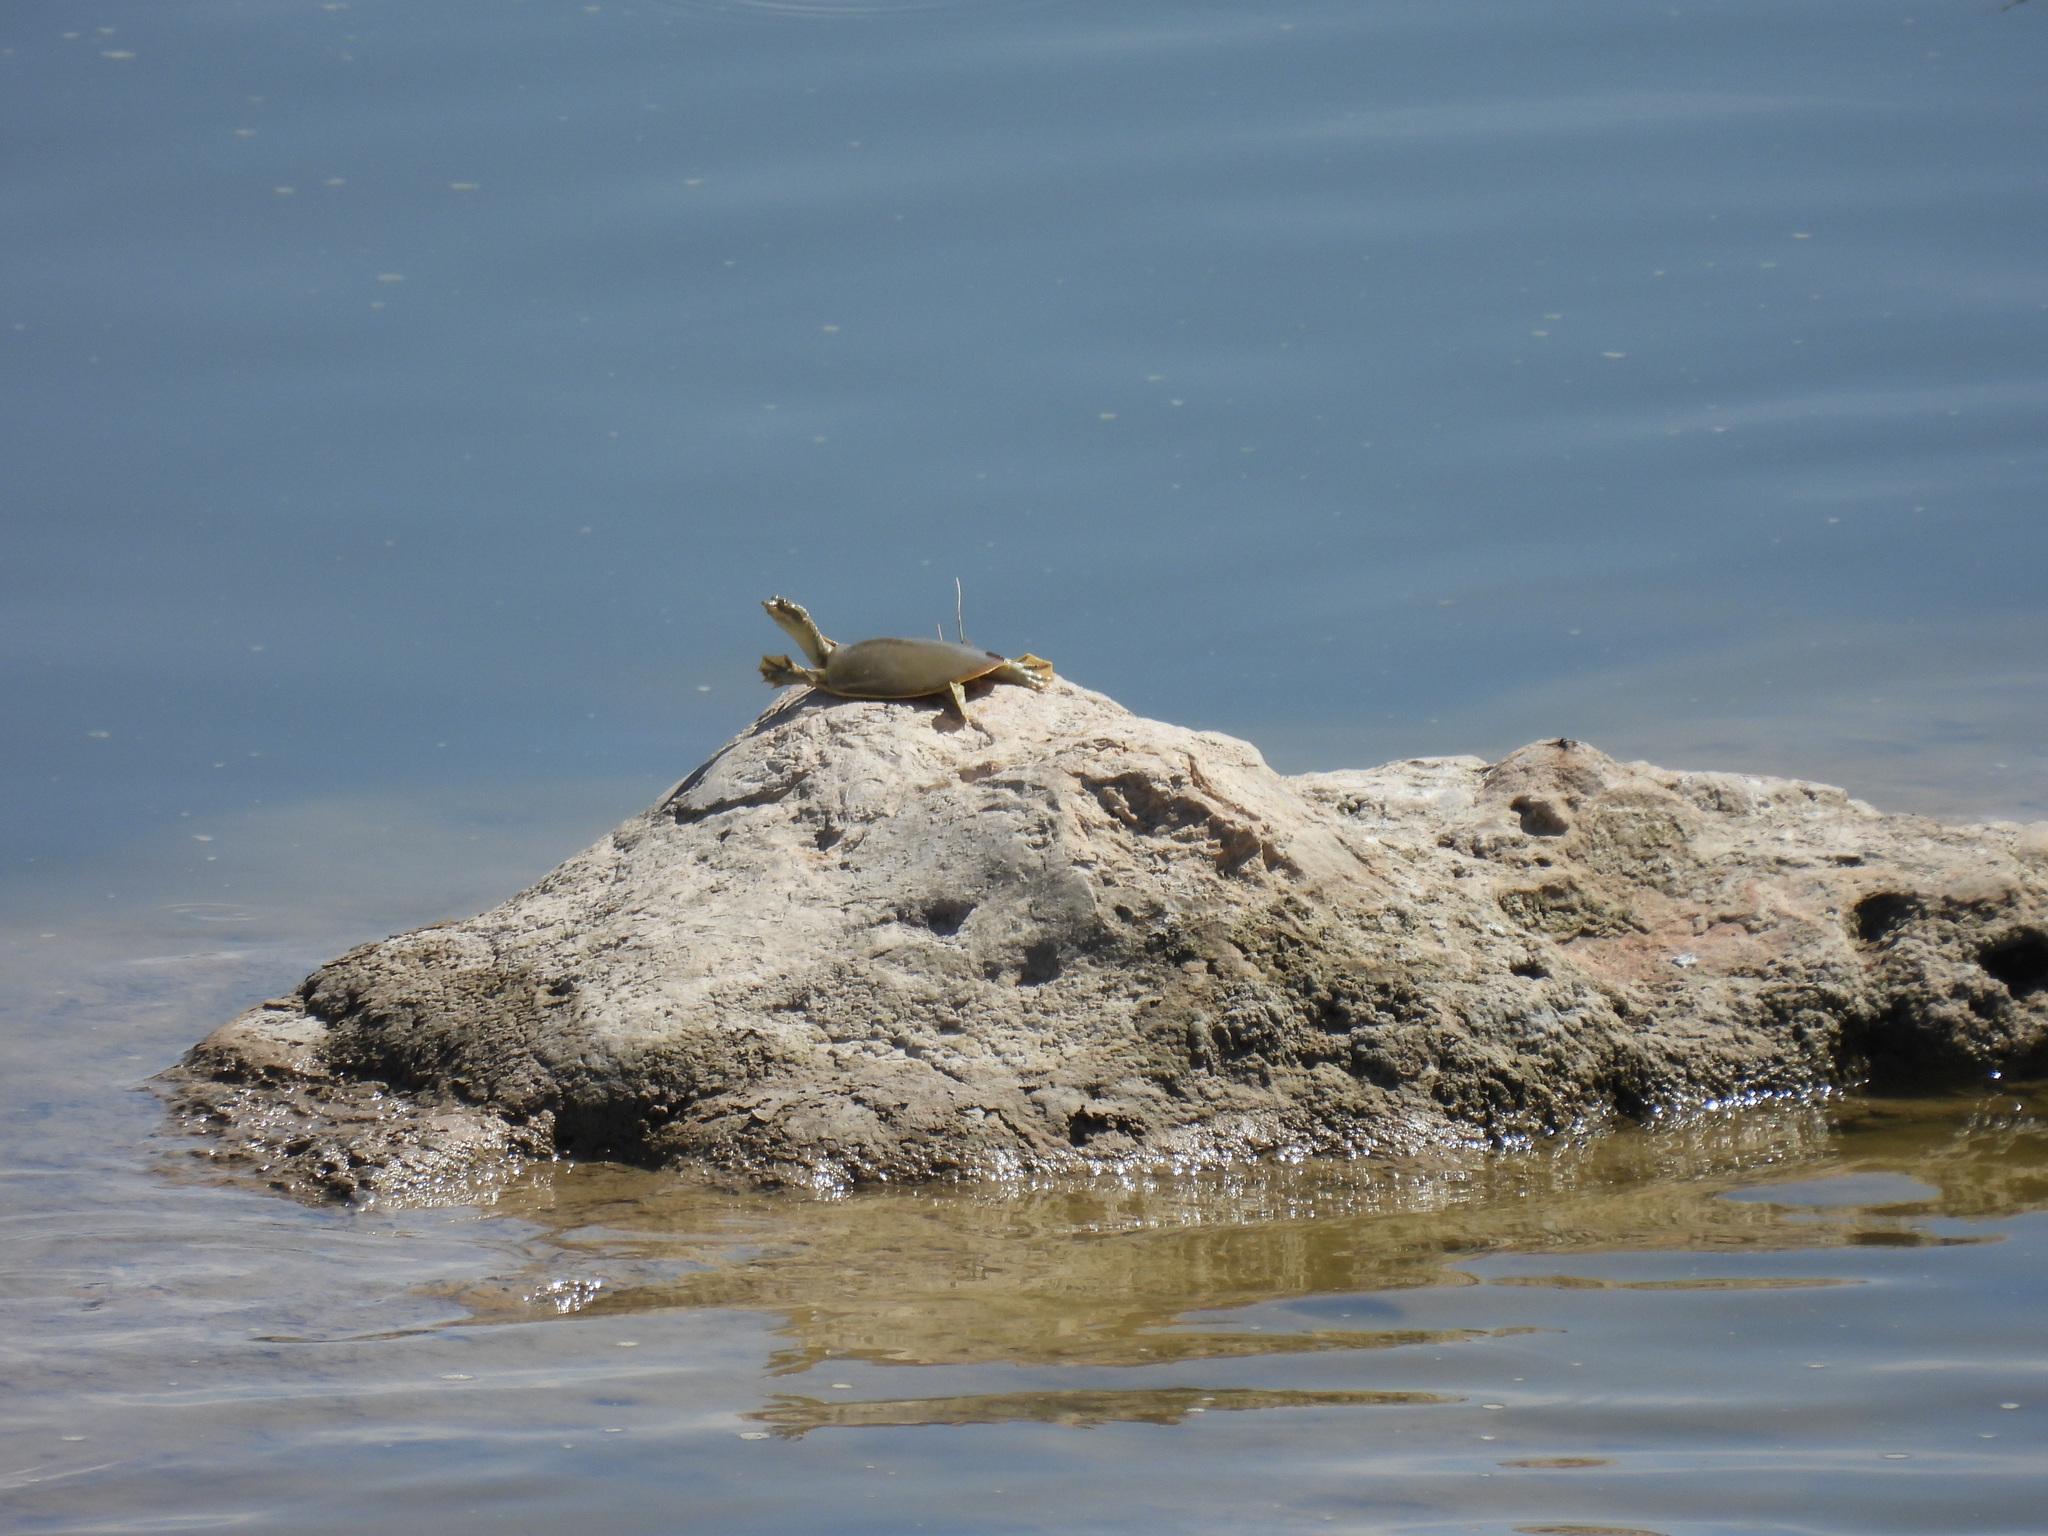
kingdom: Animalia
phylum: Chordata
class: Testudines
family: Trionychidae
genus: Apalone
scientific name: Apalone spinifera
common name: Spiny softshell turtle
